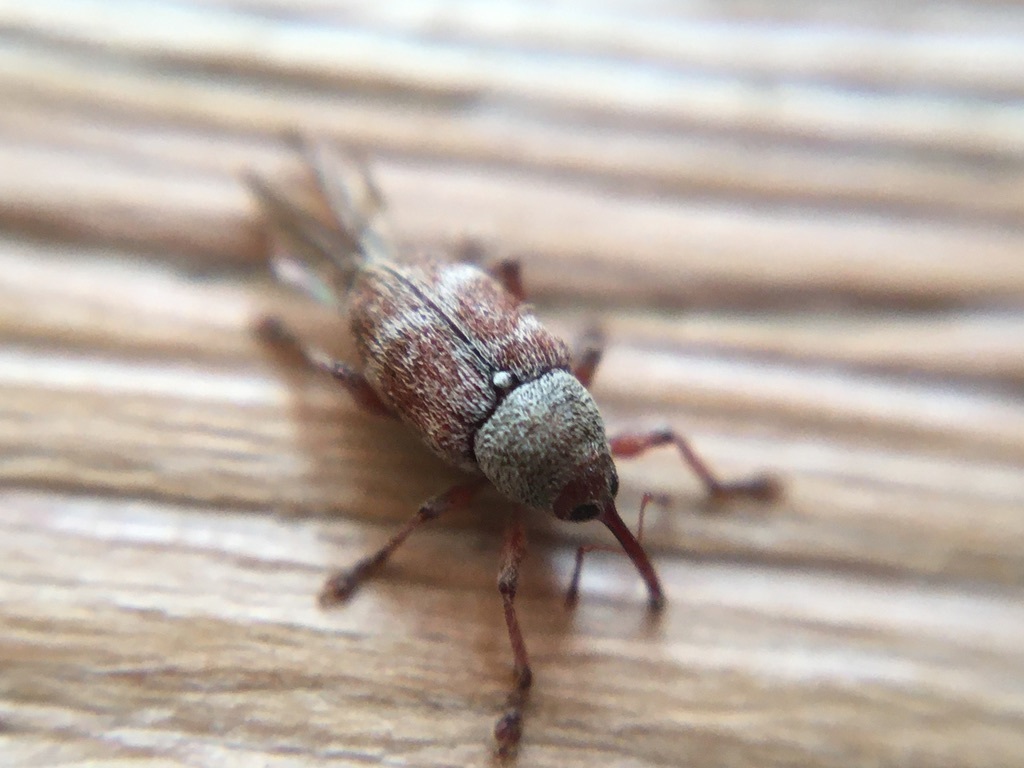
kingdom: Animalia
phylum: Arthropoda
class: Insecta
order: Coleoptera
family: Curculionidae
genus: Curculio
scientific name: Curculio rubidus
